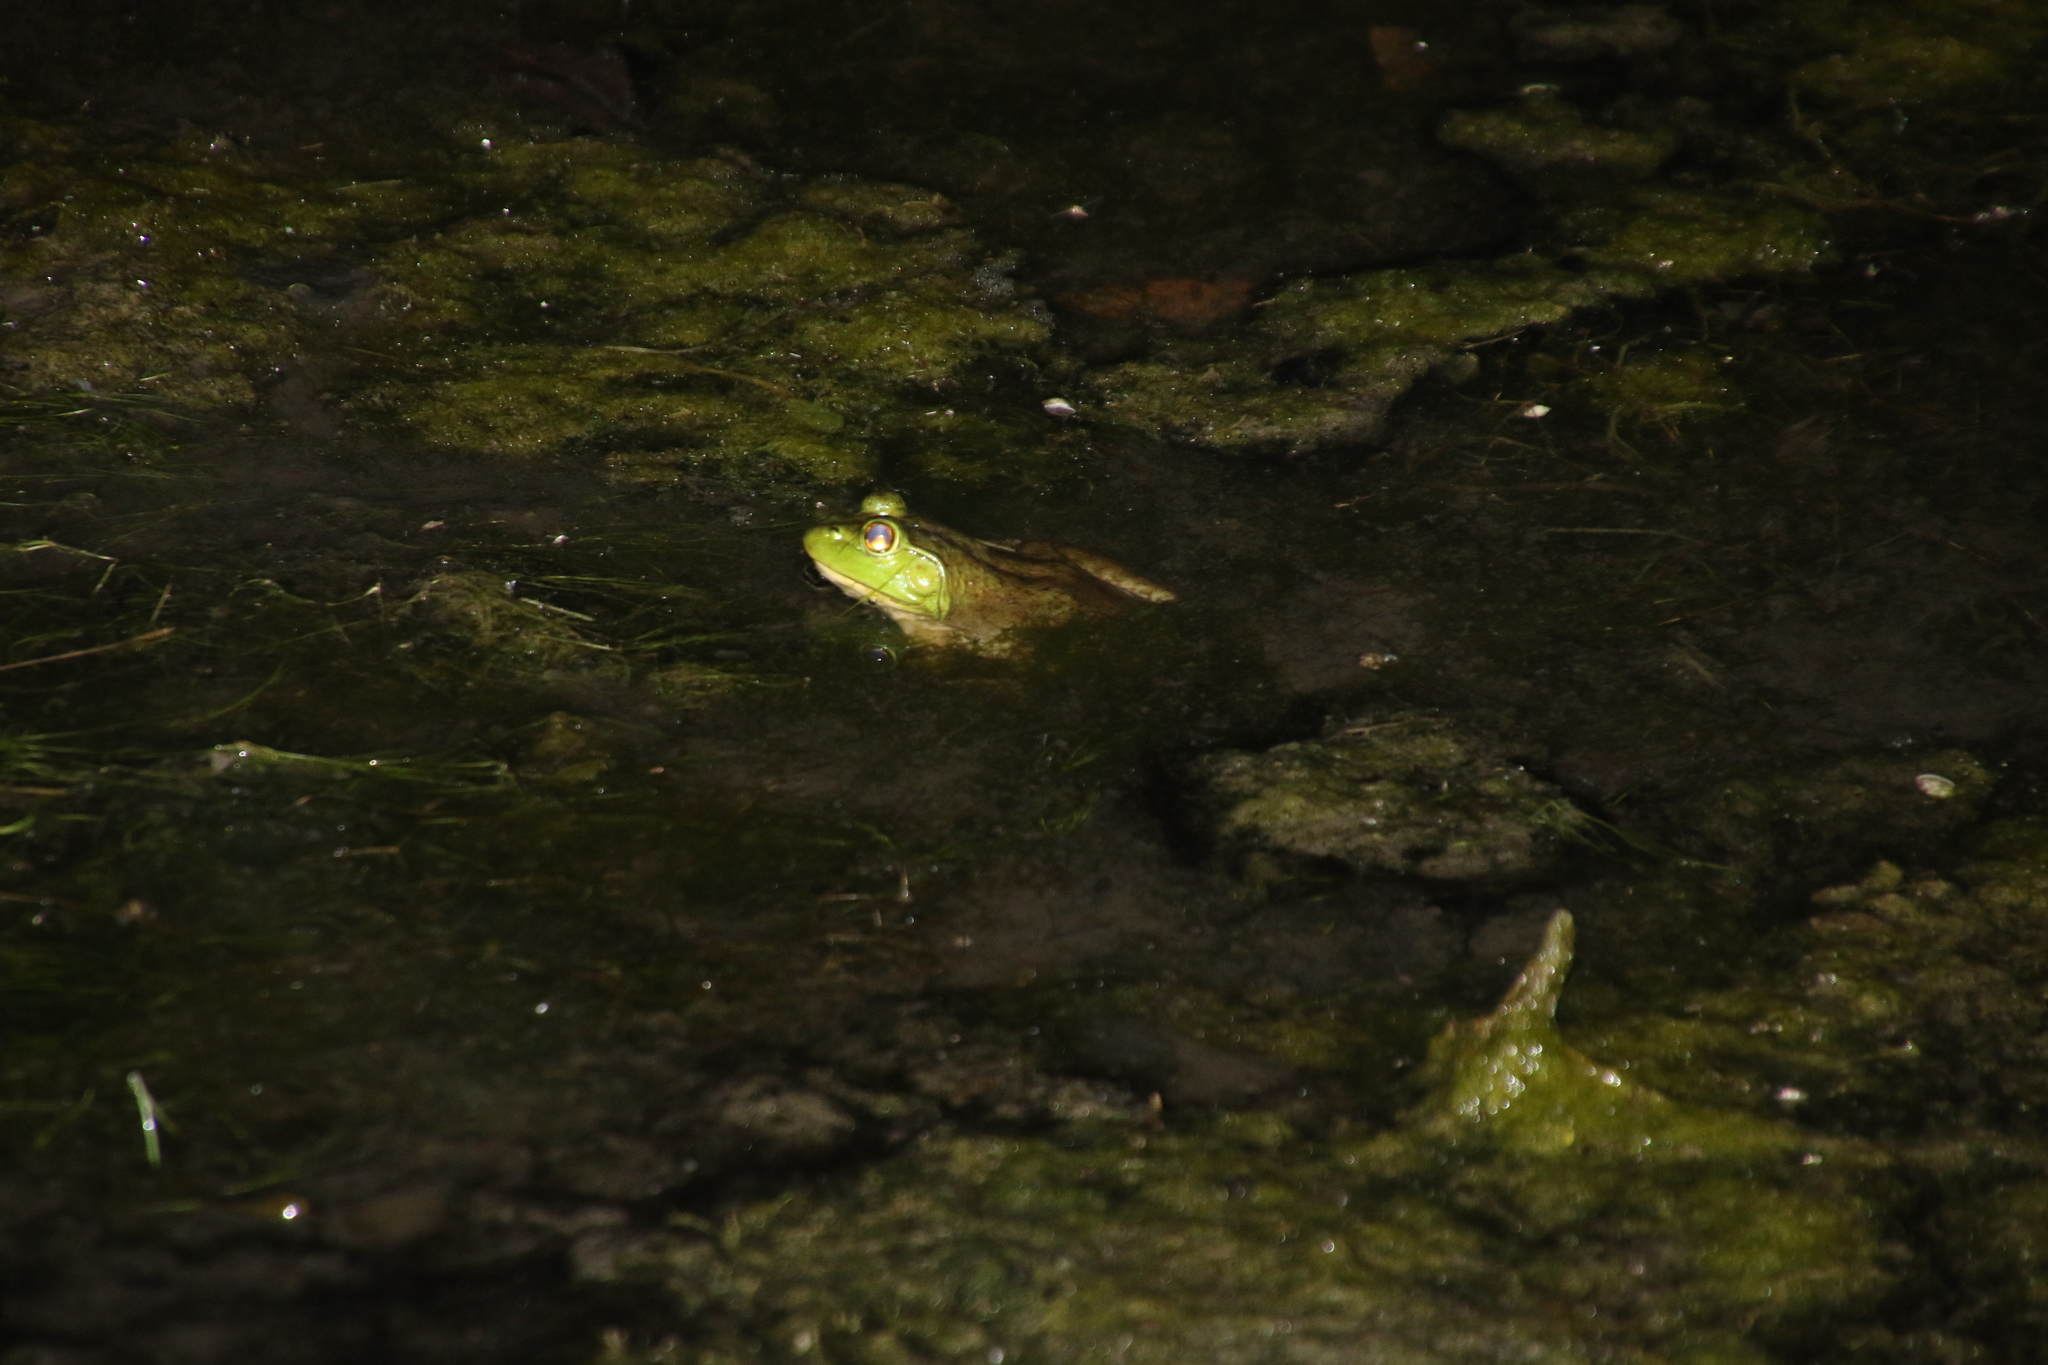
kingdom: Animalia
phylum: Chordata
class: Amphibia
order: Anura
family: Ranidae
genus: Lithobates
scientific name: Lithobates catesbeianus
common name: American bullfrog
